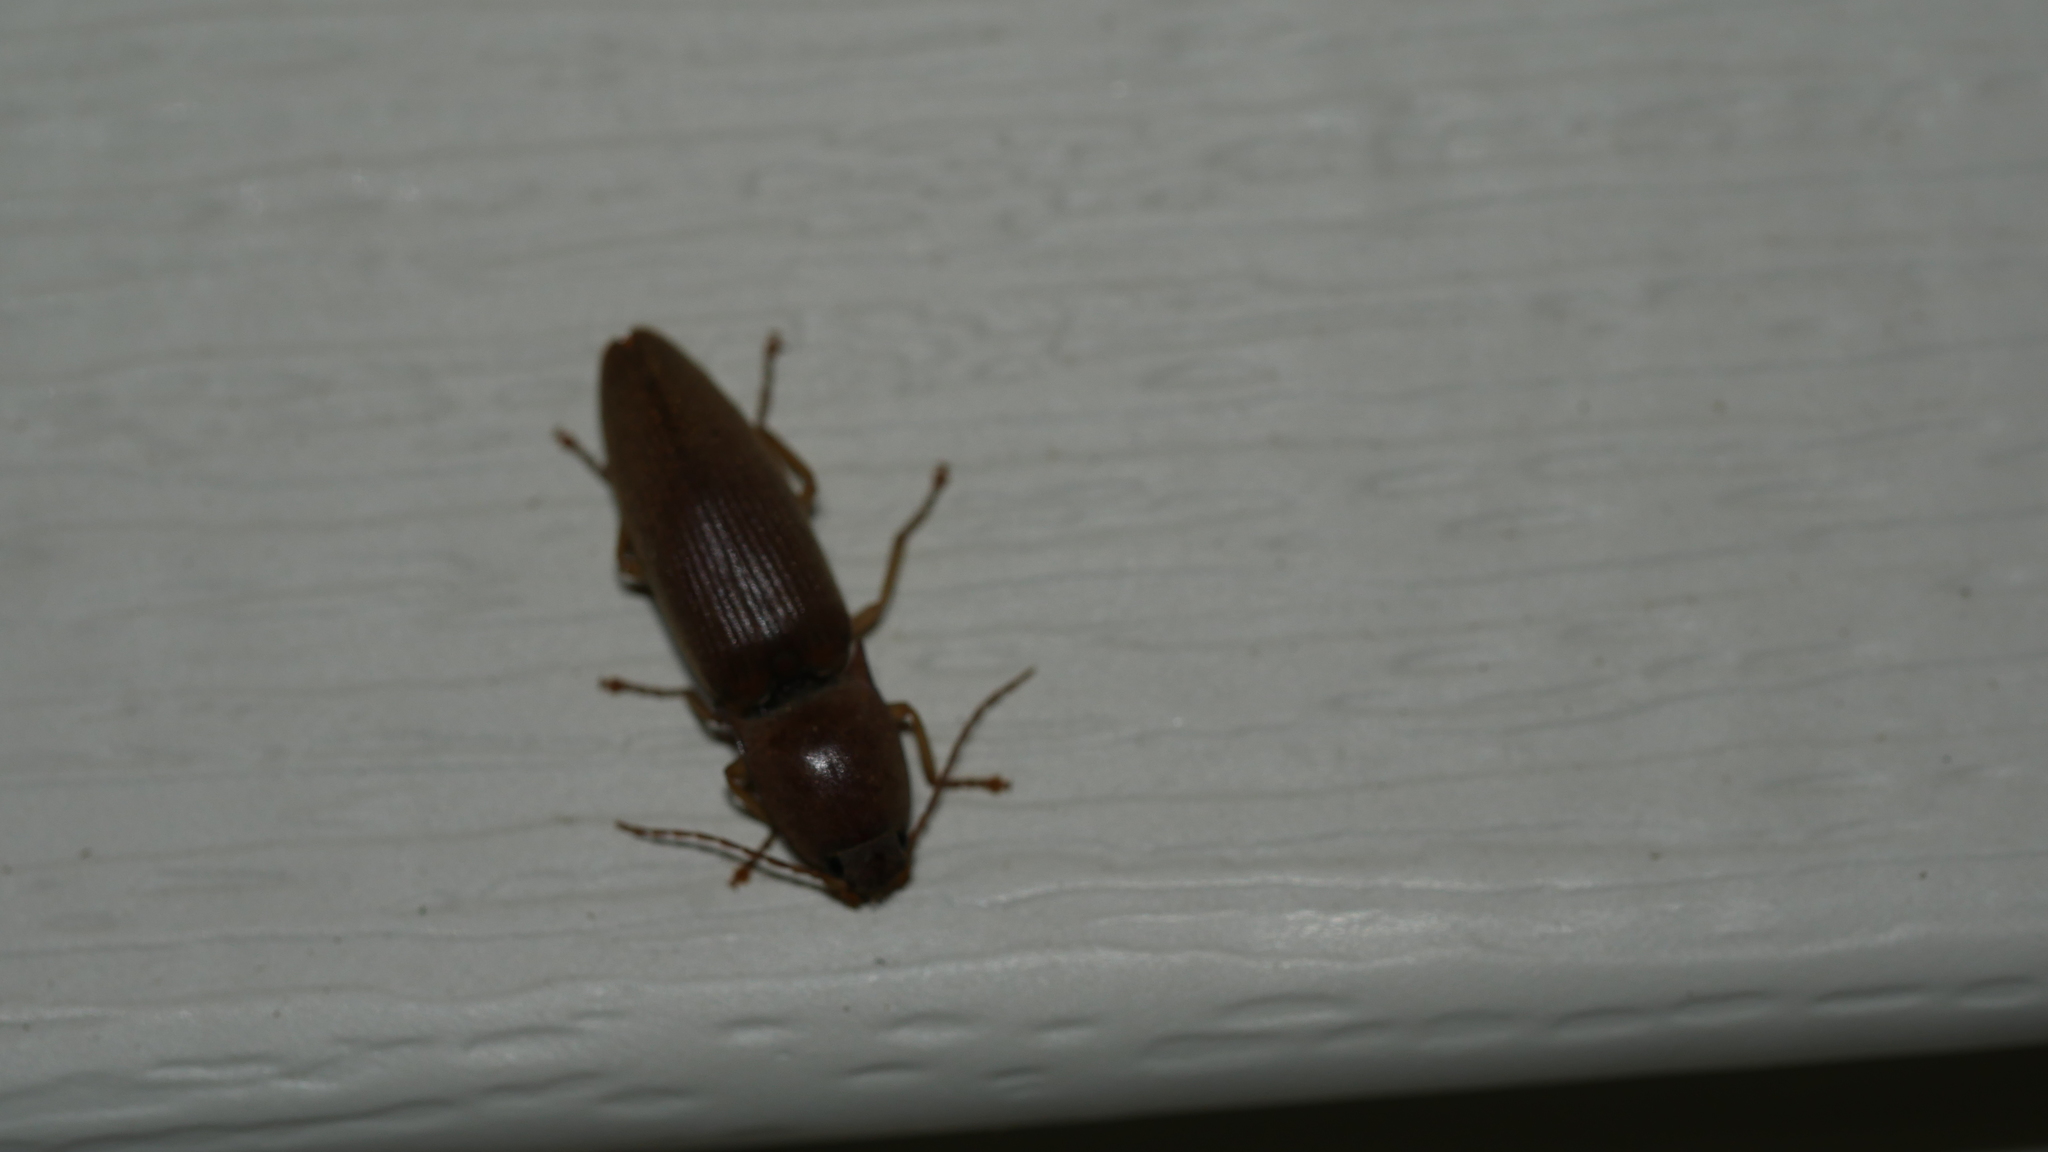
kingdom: Animalia
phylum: Arthropoda
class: Insecta
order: Coleoptera
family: Elateridae
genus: Monocrepidius
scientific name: Monocrepidius lividus
